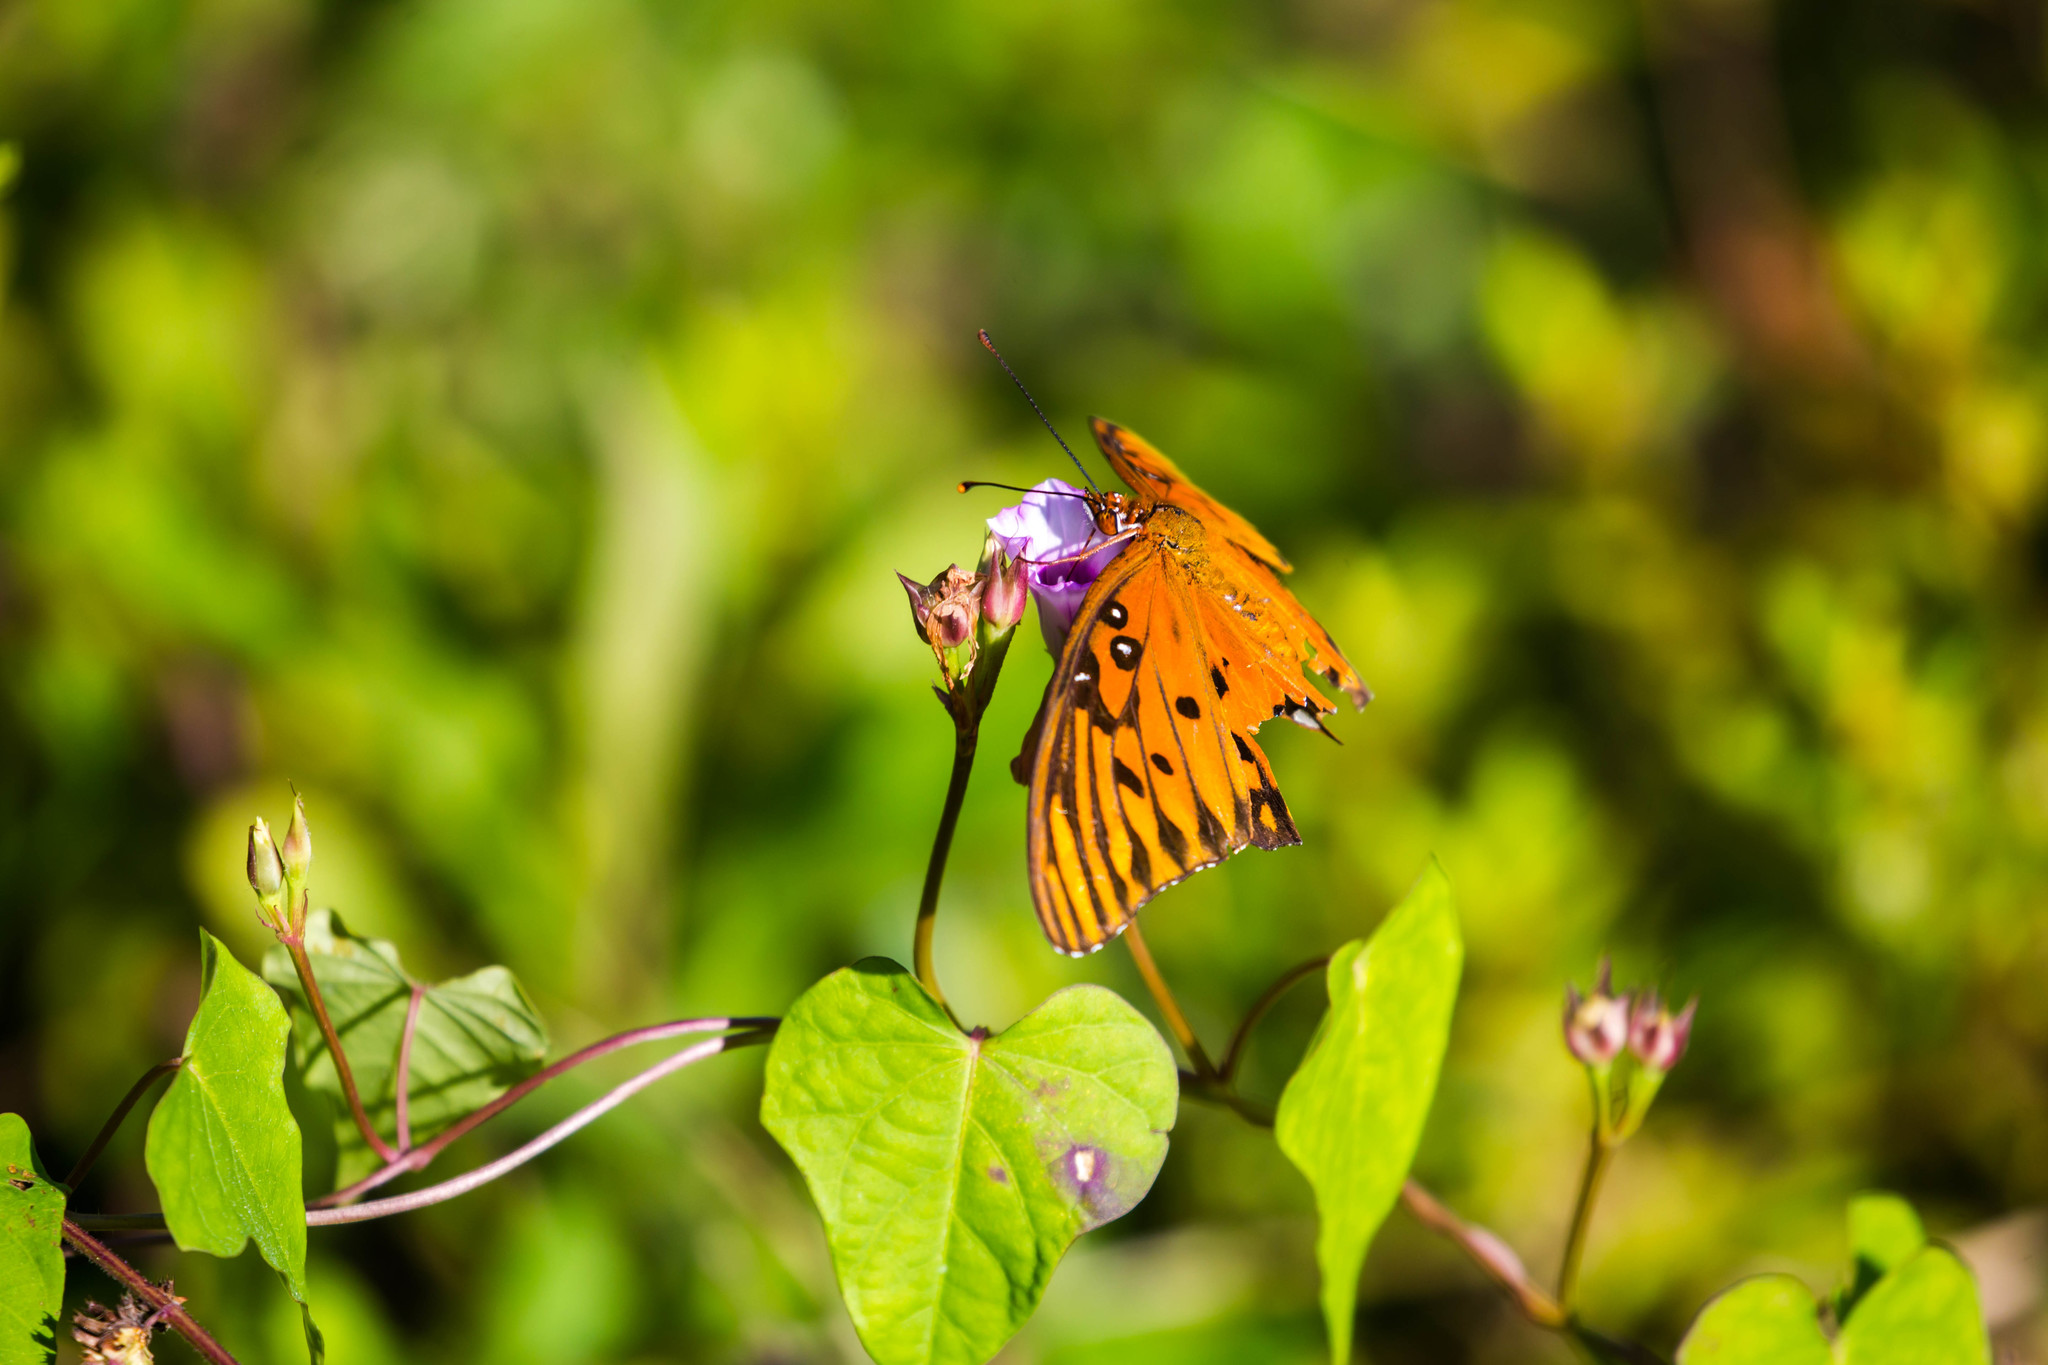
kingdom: Animalia
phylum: Arthropoda
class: Insecta
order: Lepidoptera
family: Nymphalidae
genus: Dione
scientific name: Dione vanillae
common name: Gulf fritillary
